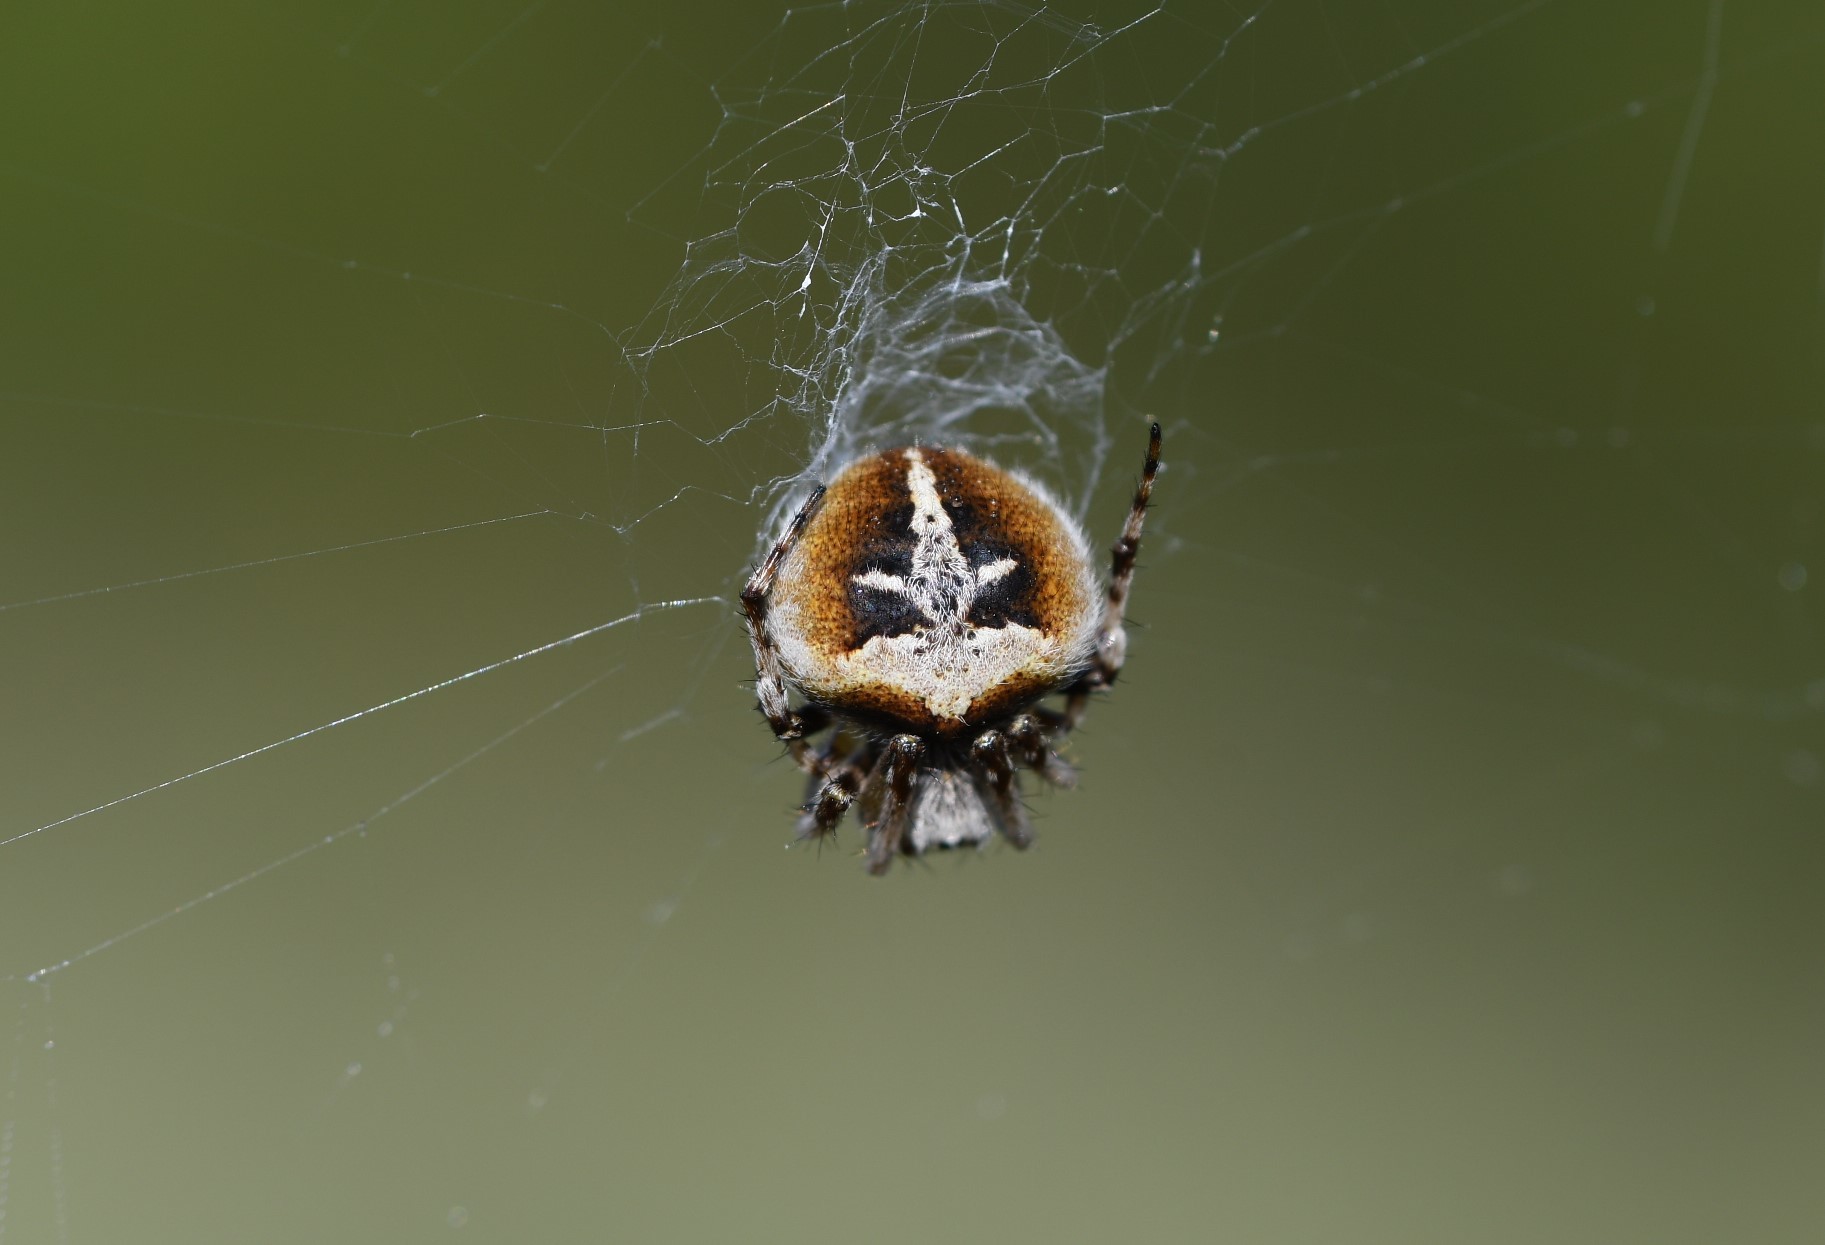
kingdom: Animalia
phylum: Arthropoda
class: Arachnida
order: Araneae
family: Araneidae
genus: Agalenatea
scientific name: Agalenatea redii
